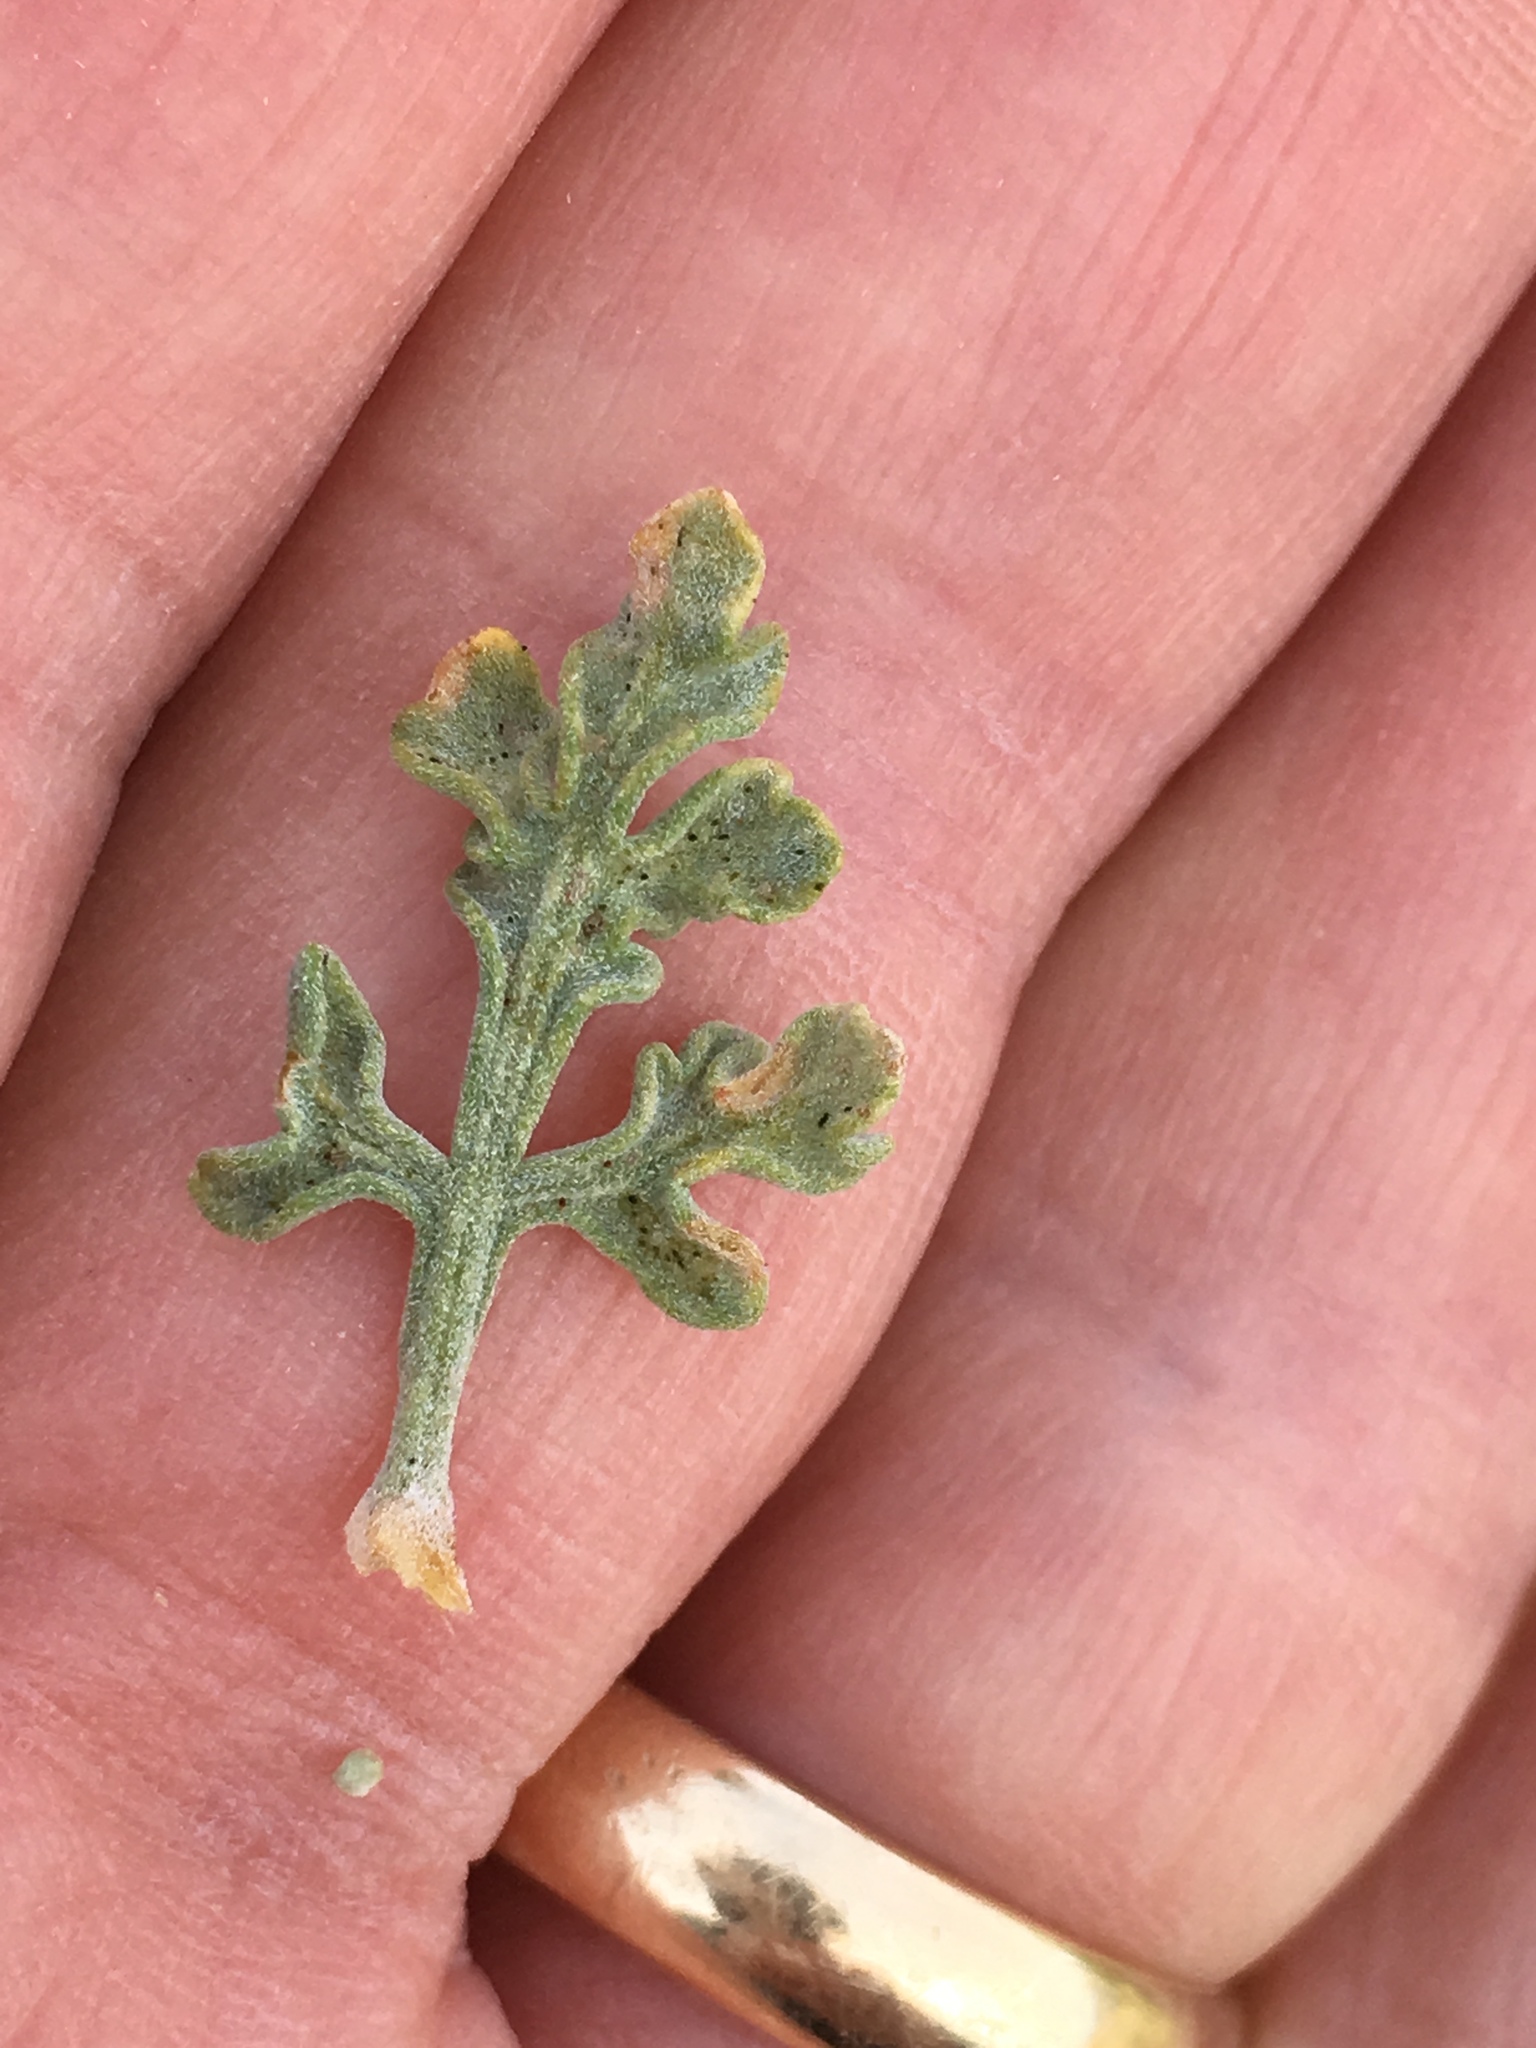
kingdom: Plantae
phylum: Tracheophyta
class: Magnoliopsida
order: Asterales
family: Asteraceae
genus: Ambrosia
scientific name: Ambrosia dumosa
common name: Bur-sage
